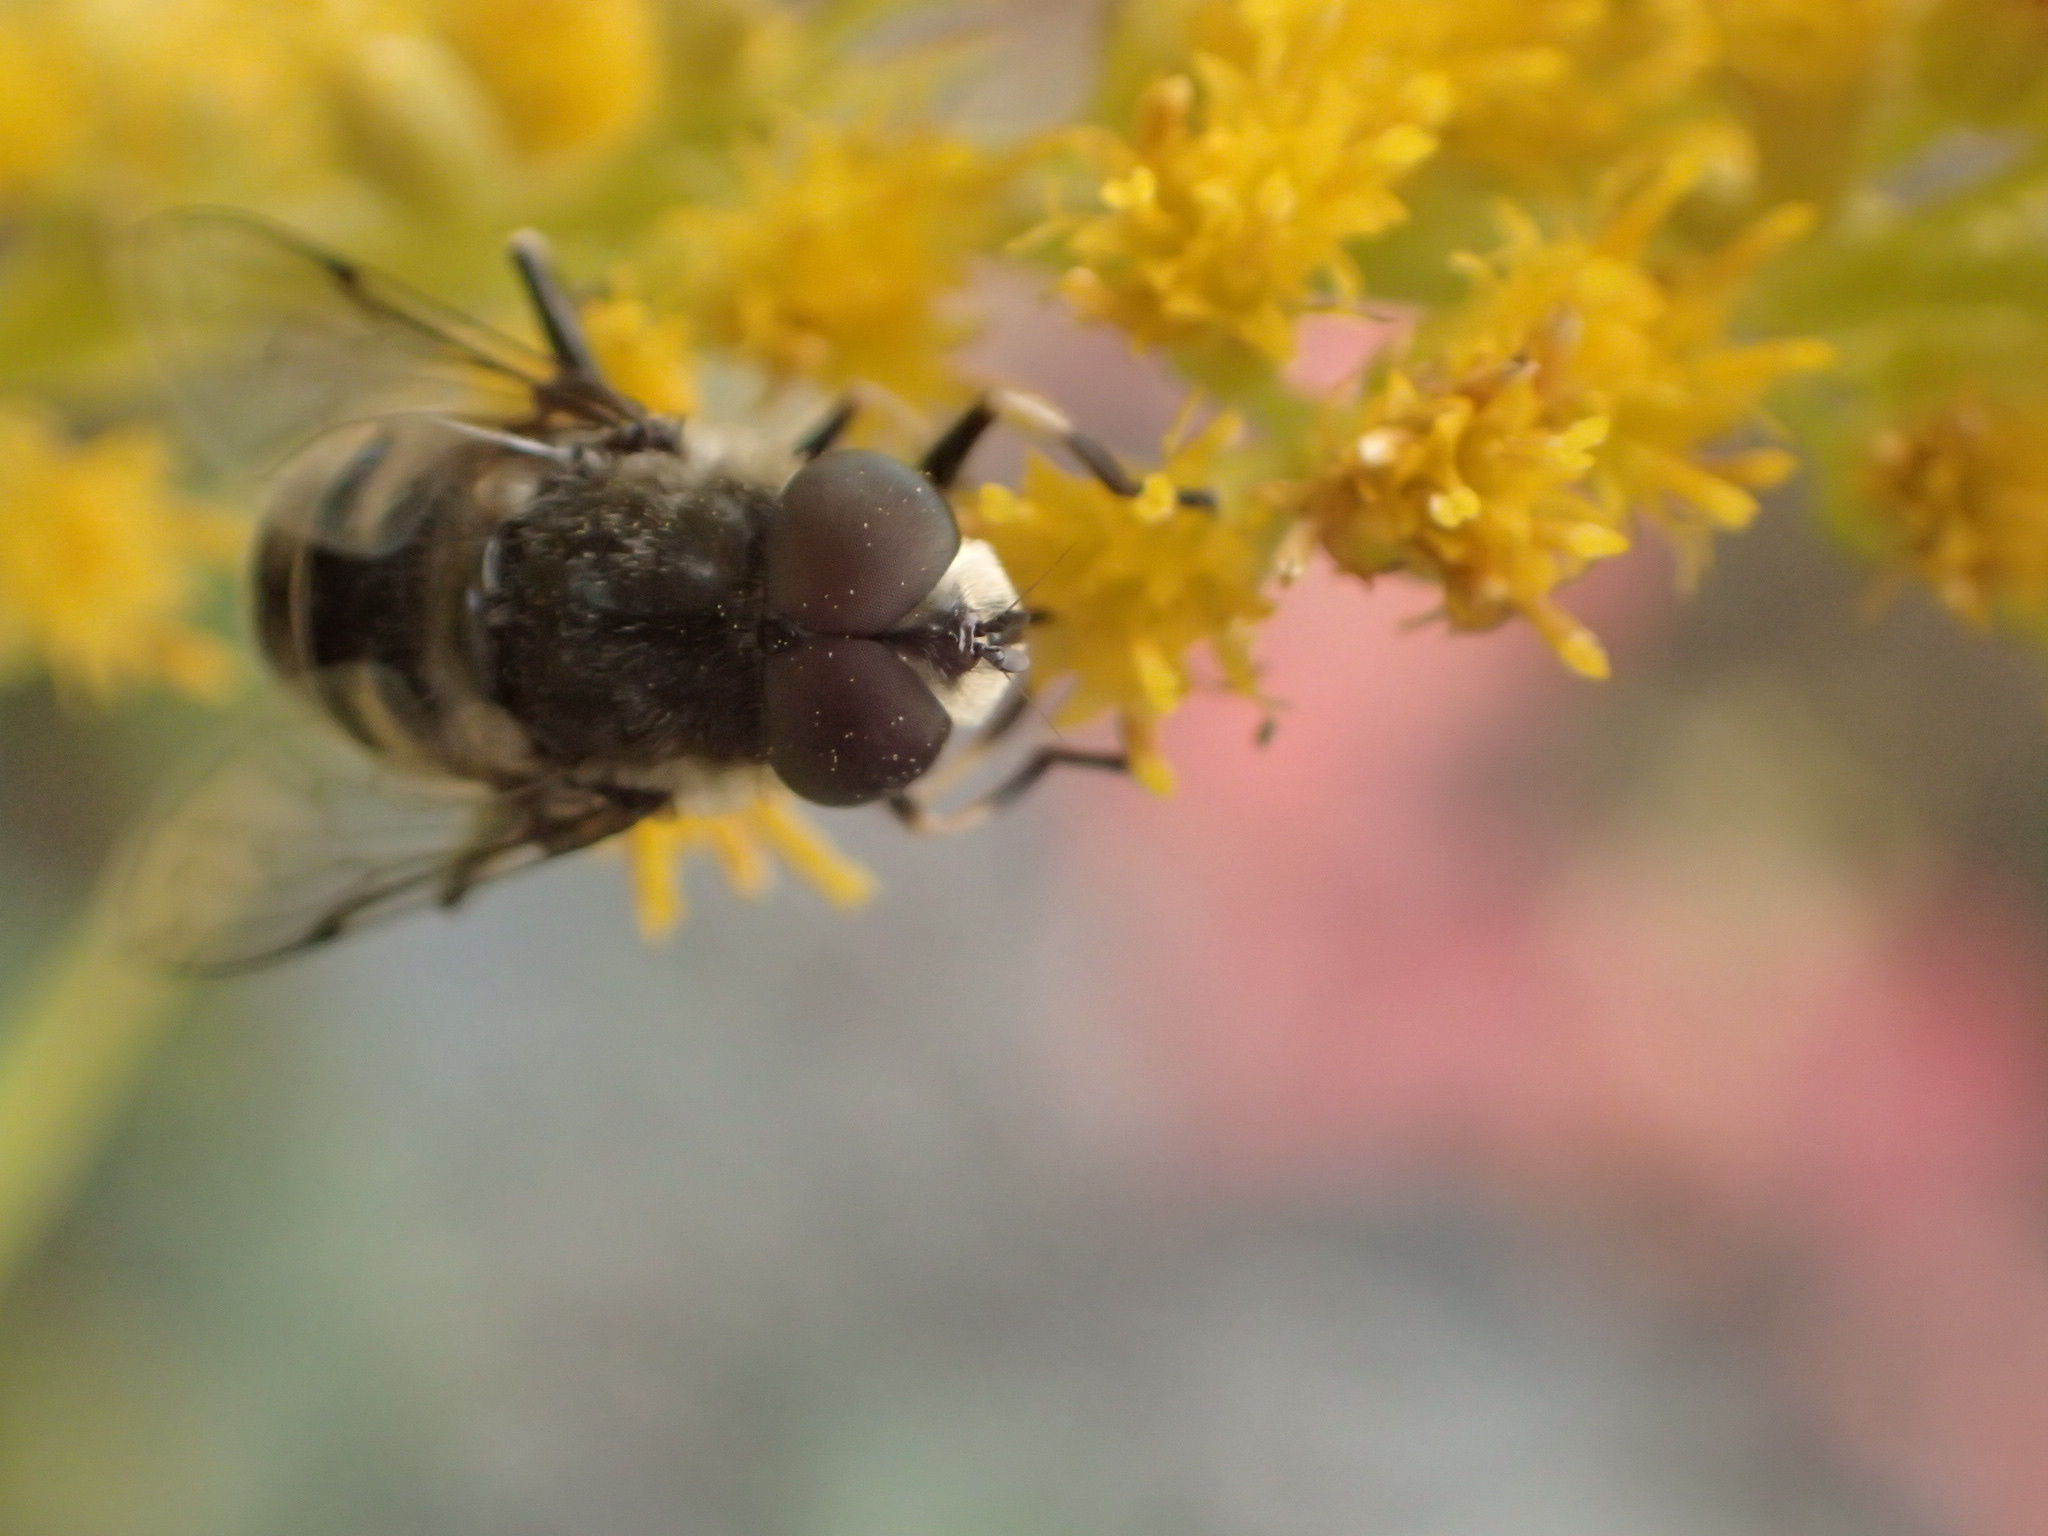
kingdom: Animalia
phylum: Arthropoda
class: Insecta
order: Diptera
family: Syrphidae
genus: Eristalis
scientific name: Eristalis stipator
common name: Yellow-shouldered drone fly
